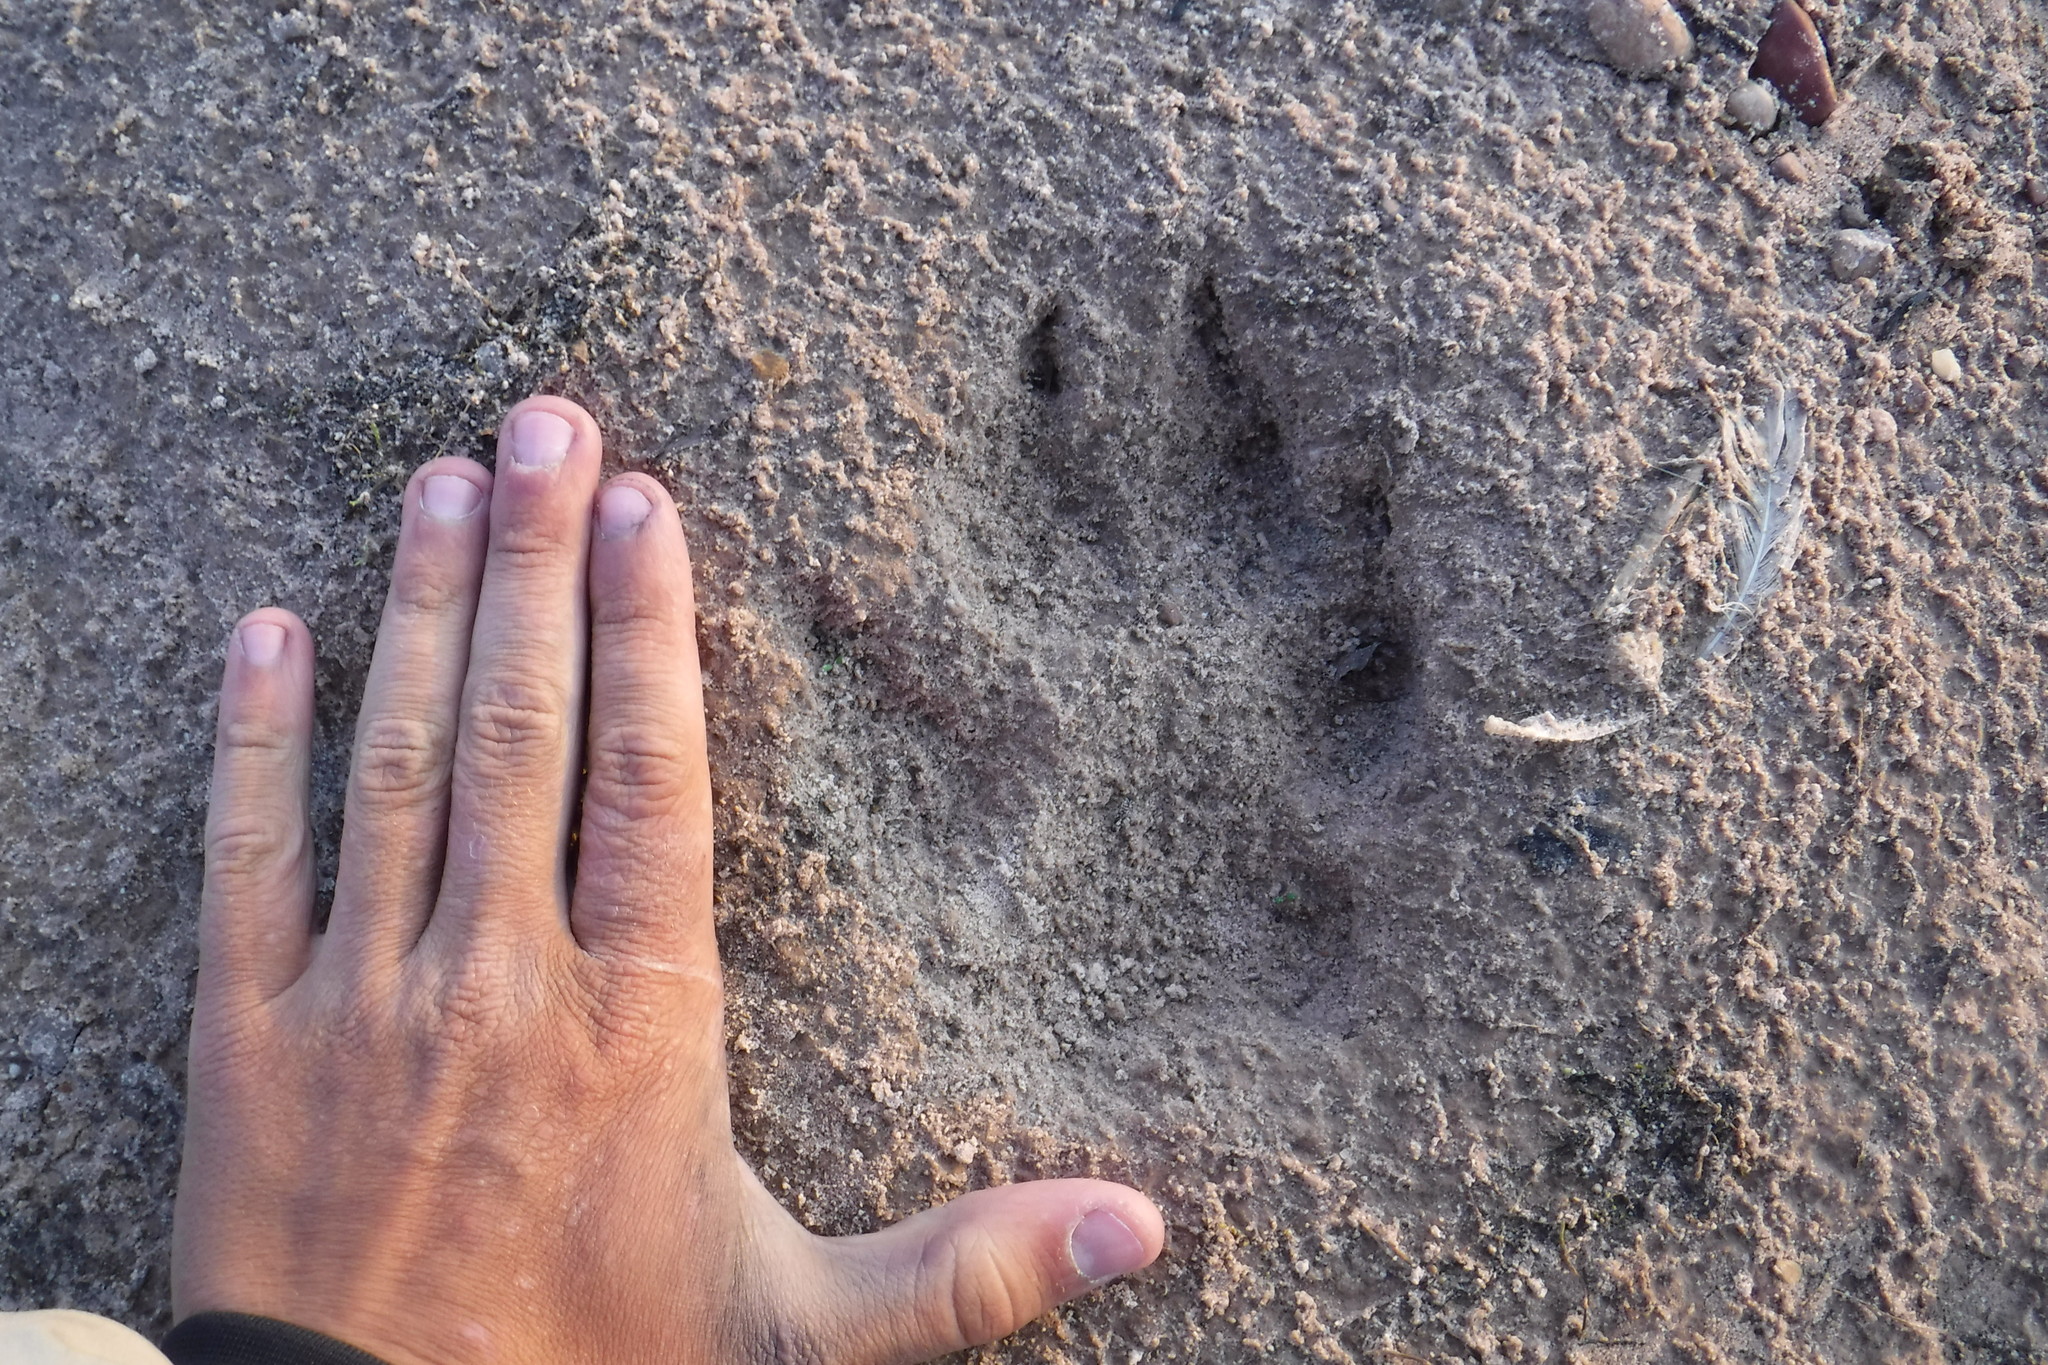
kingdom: Animalia
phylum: Chordata
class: Mammalia
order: Carnivora
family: Canidae
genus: Canis
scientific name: Canis lupus
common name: Gray wolf
